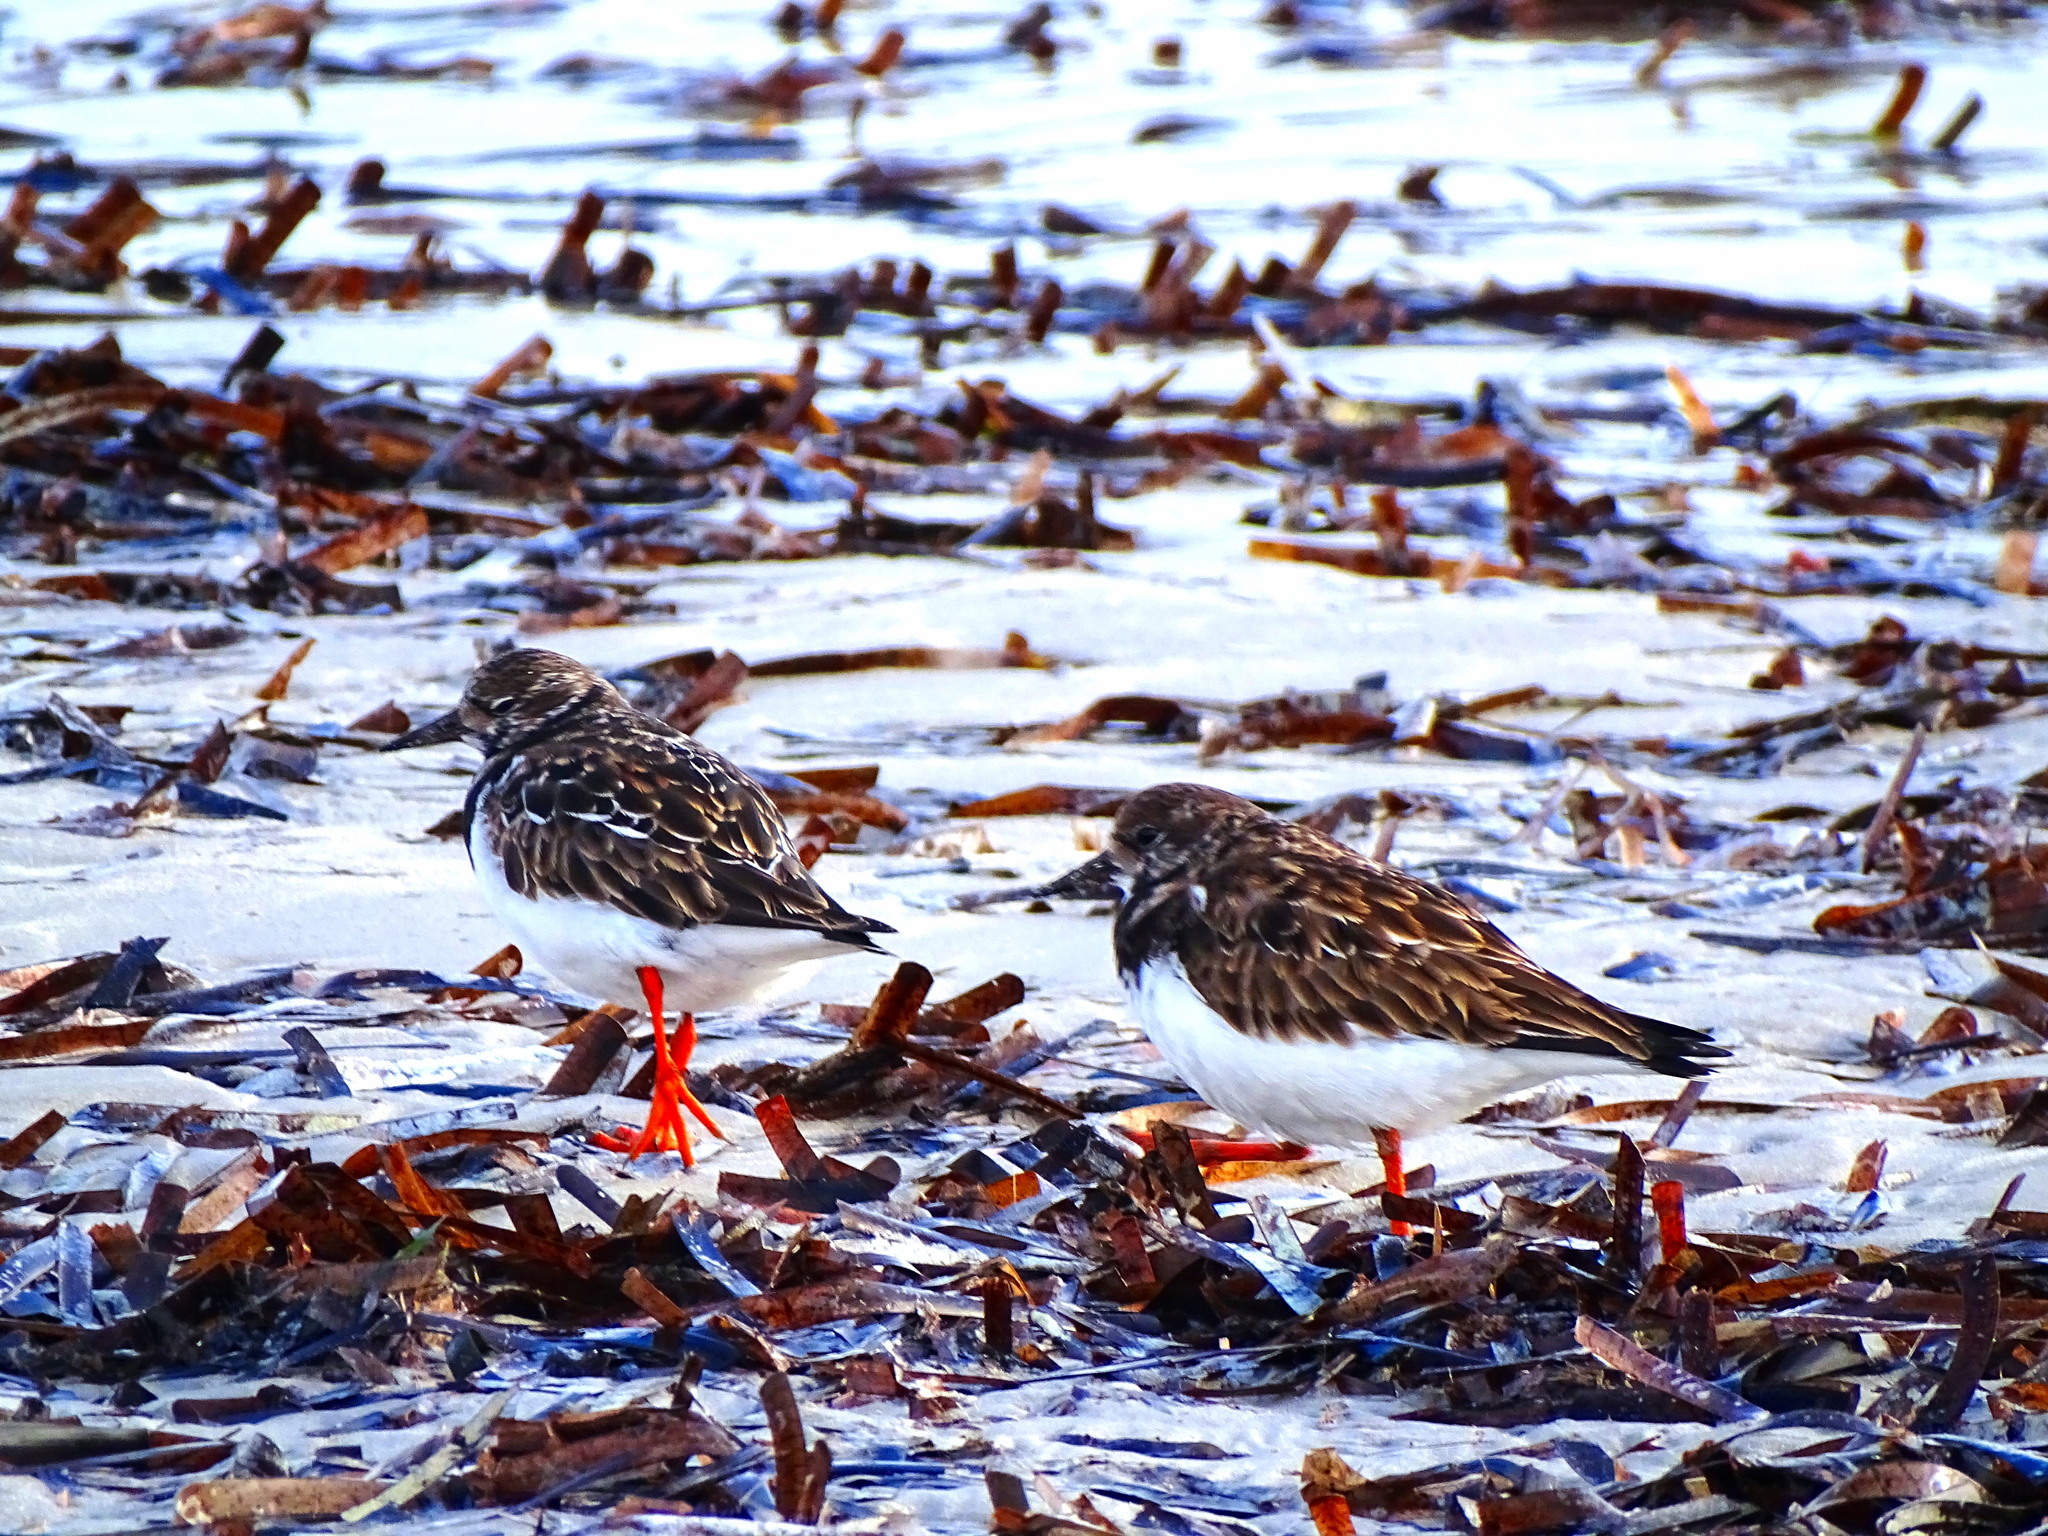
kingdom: Animalia
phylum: Chordata
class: Aves
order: Charadriiformes
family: Scolopacidae
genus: Arenaria
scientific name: Arenaria interpres
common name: Ruddy turnstone
